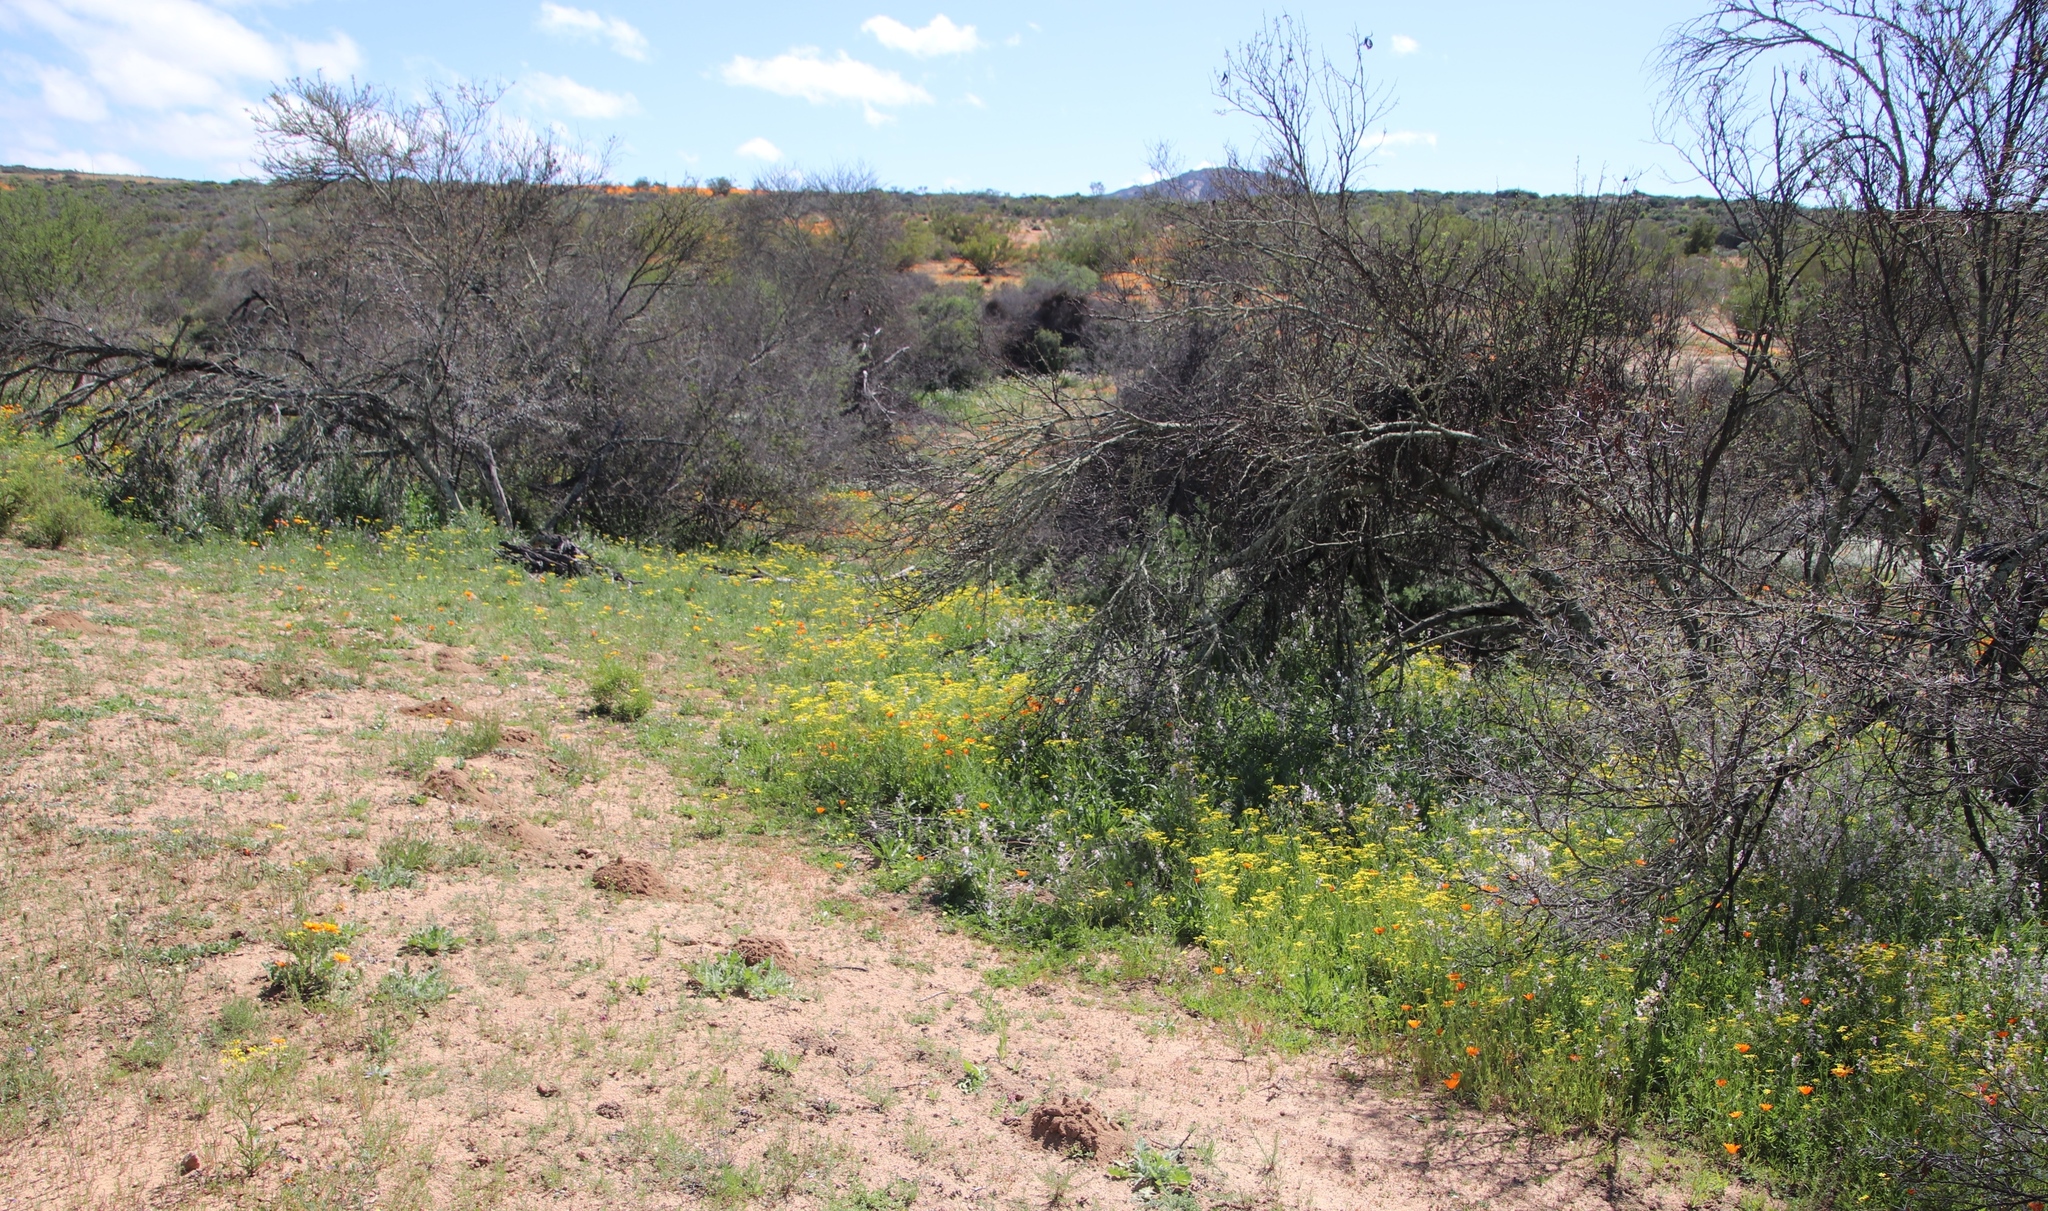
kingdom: Plantae
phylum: Tracheophyta
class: Magnoliopsida
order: Fabales
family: Fabaceae
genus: Vachellia
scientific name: Vachellia karroo
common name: Sweet thorn
